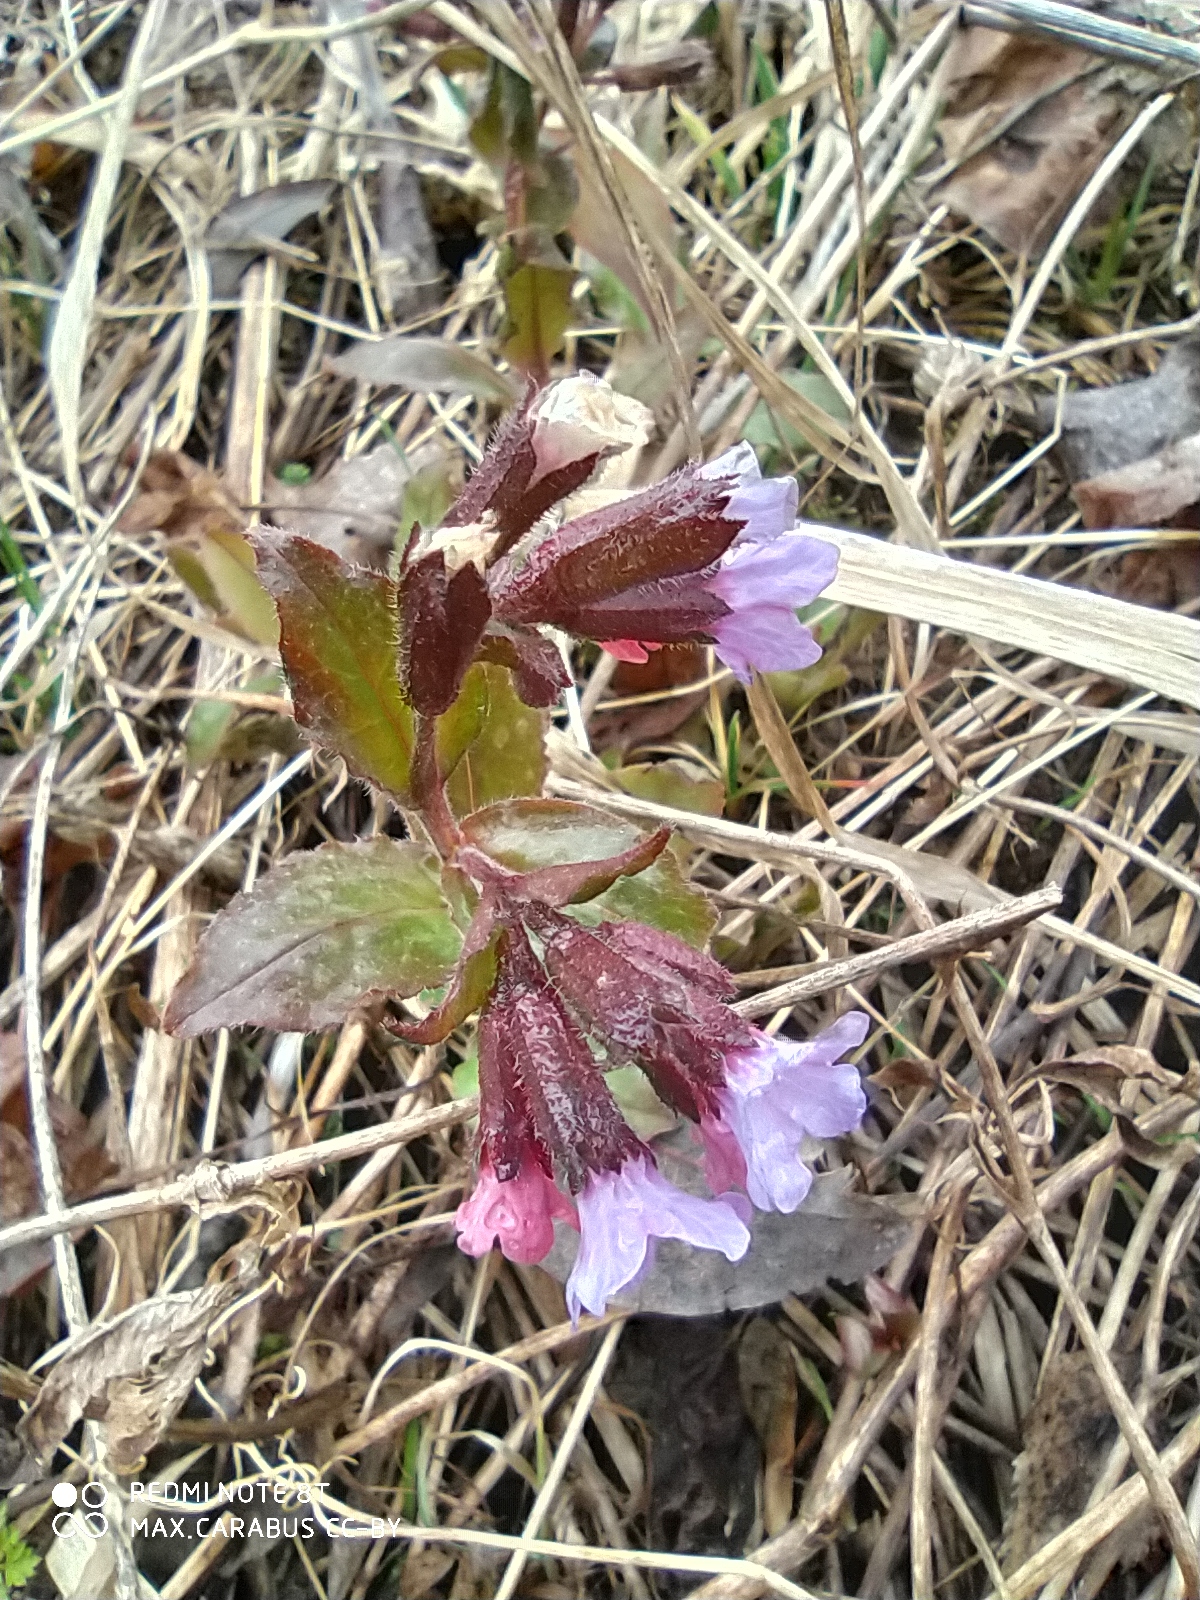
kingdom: Plantae
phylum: Tracheophyta
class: Magnoliopsida
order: Boraginales
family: Boraginaceae
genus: Pulmonaria
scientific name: Pulmonaria obscura
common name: Suffolk lungwort
